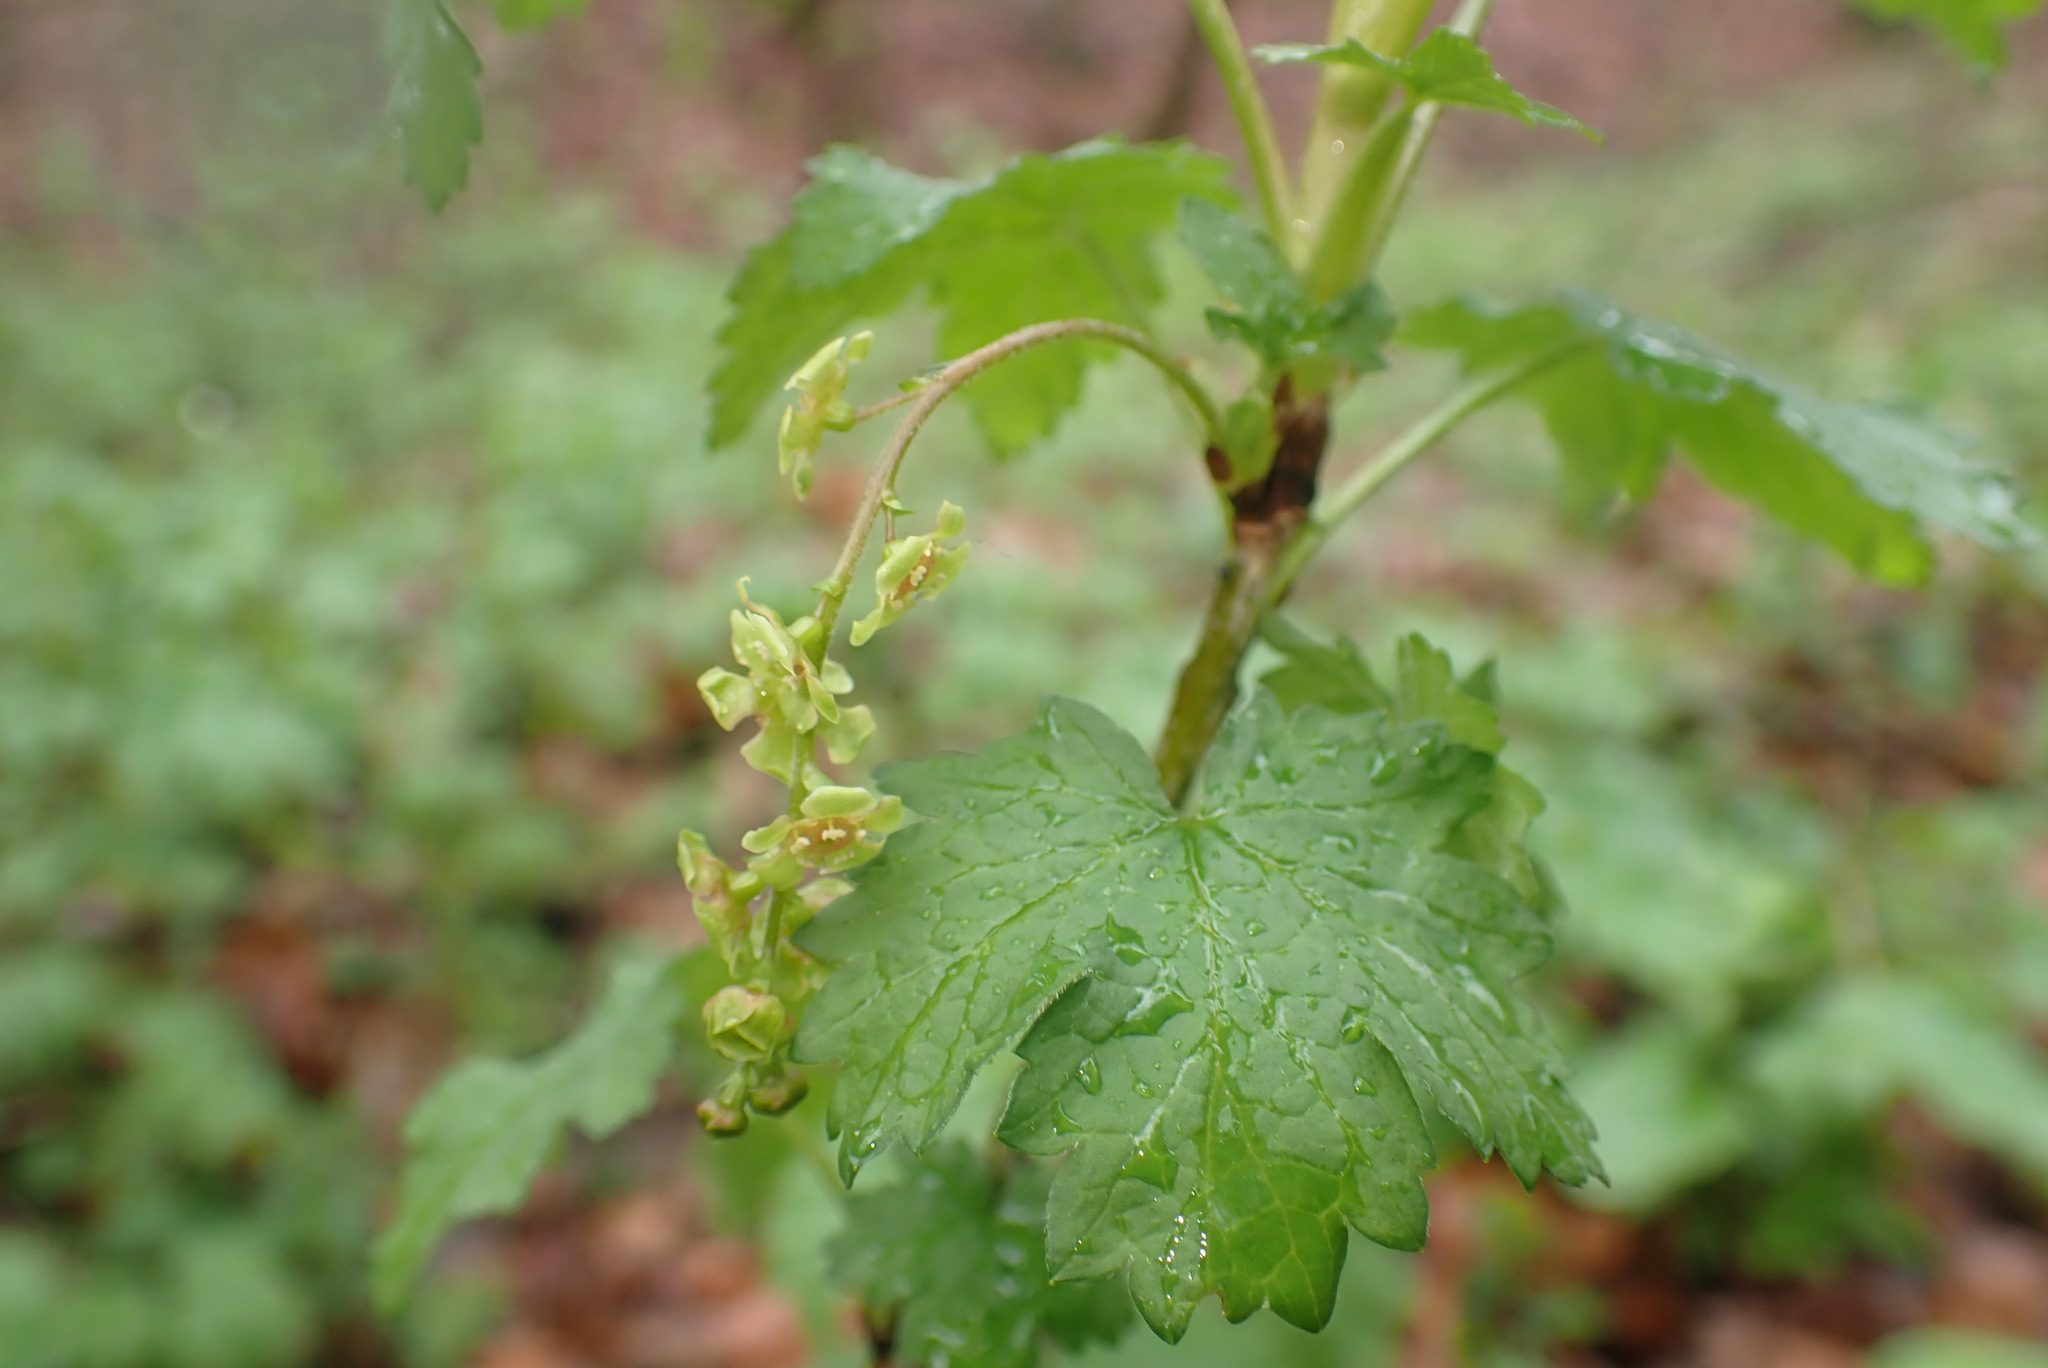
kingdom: Plantae
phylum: Tracheophyta
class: Magnoliopsida
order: Saxifragales
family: Grossulariaceae
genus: Ribes
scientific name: Ribes rubrum
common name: Red currant
